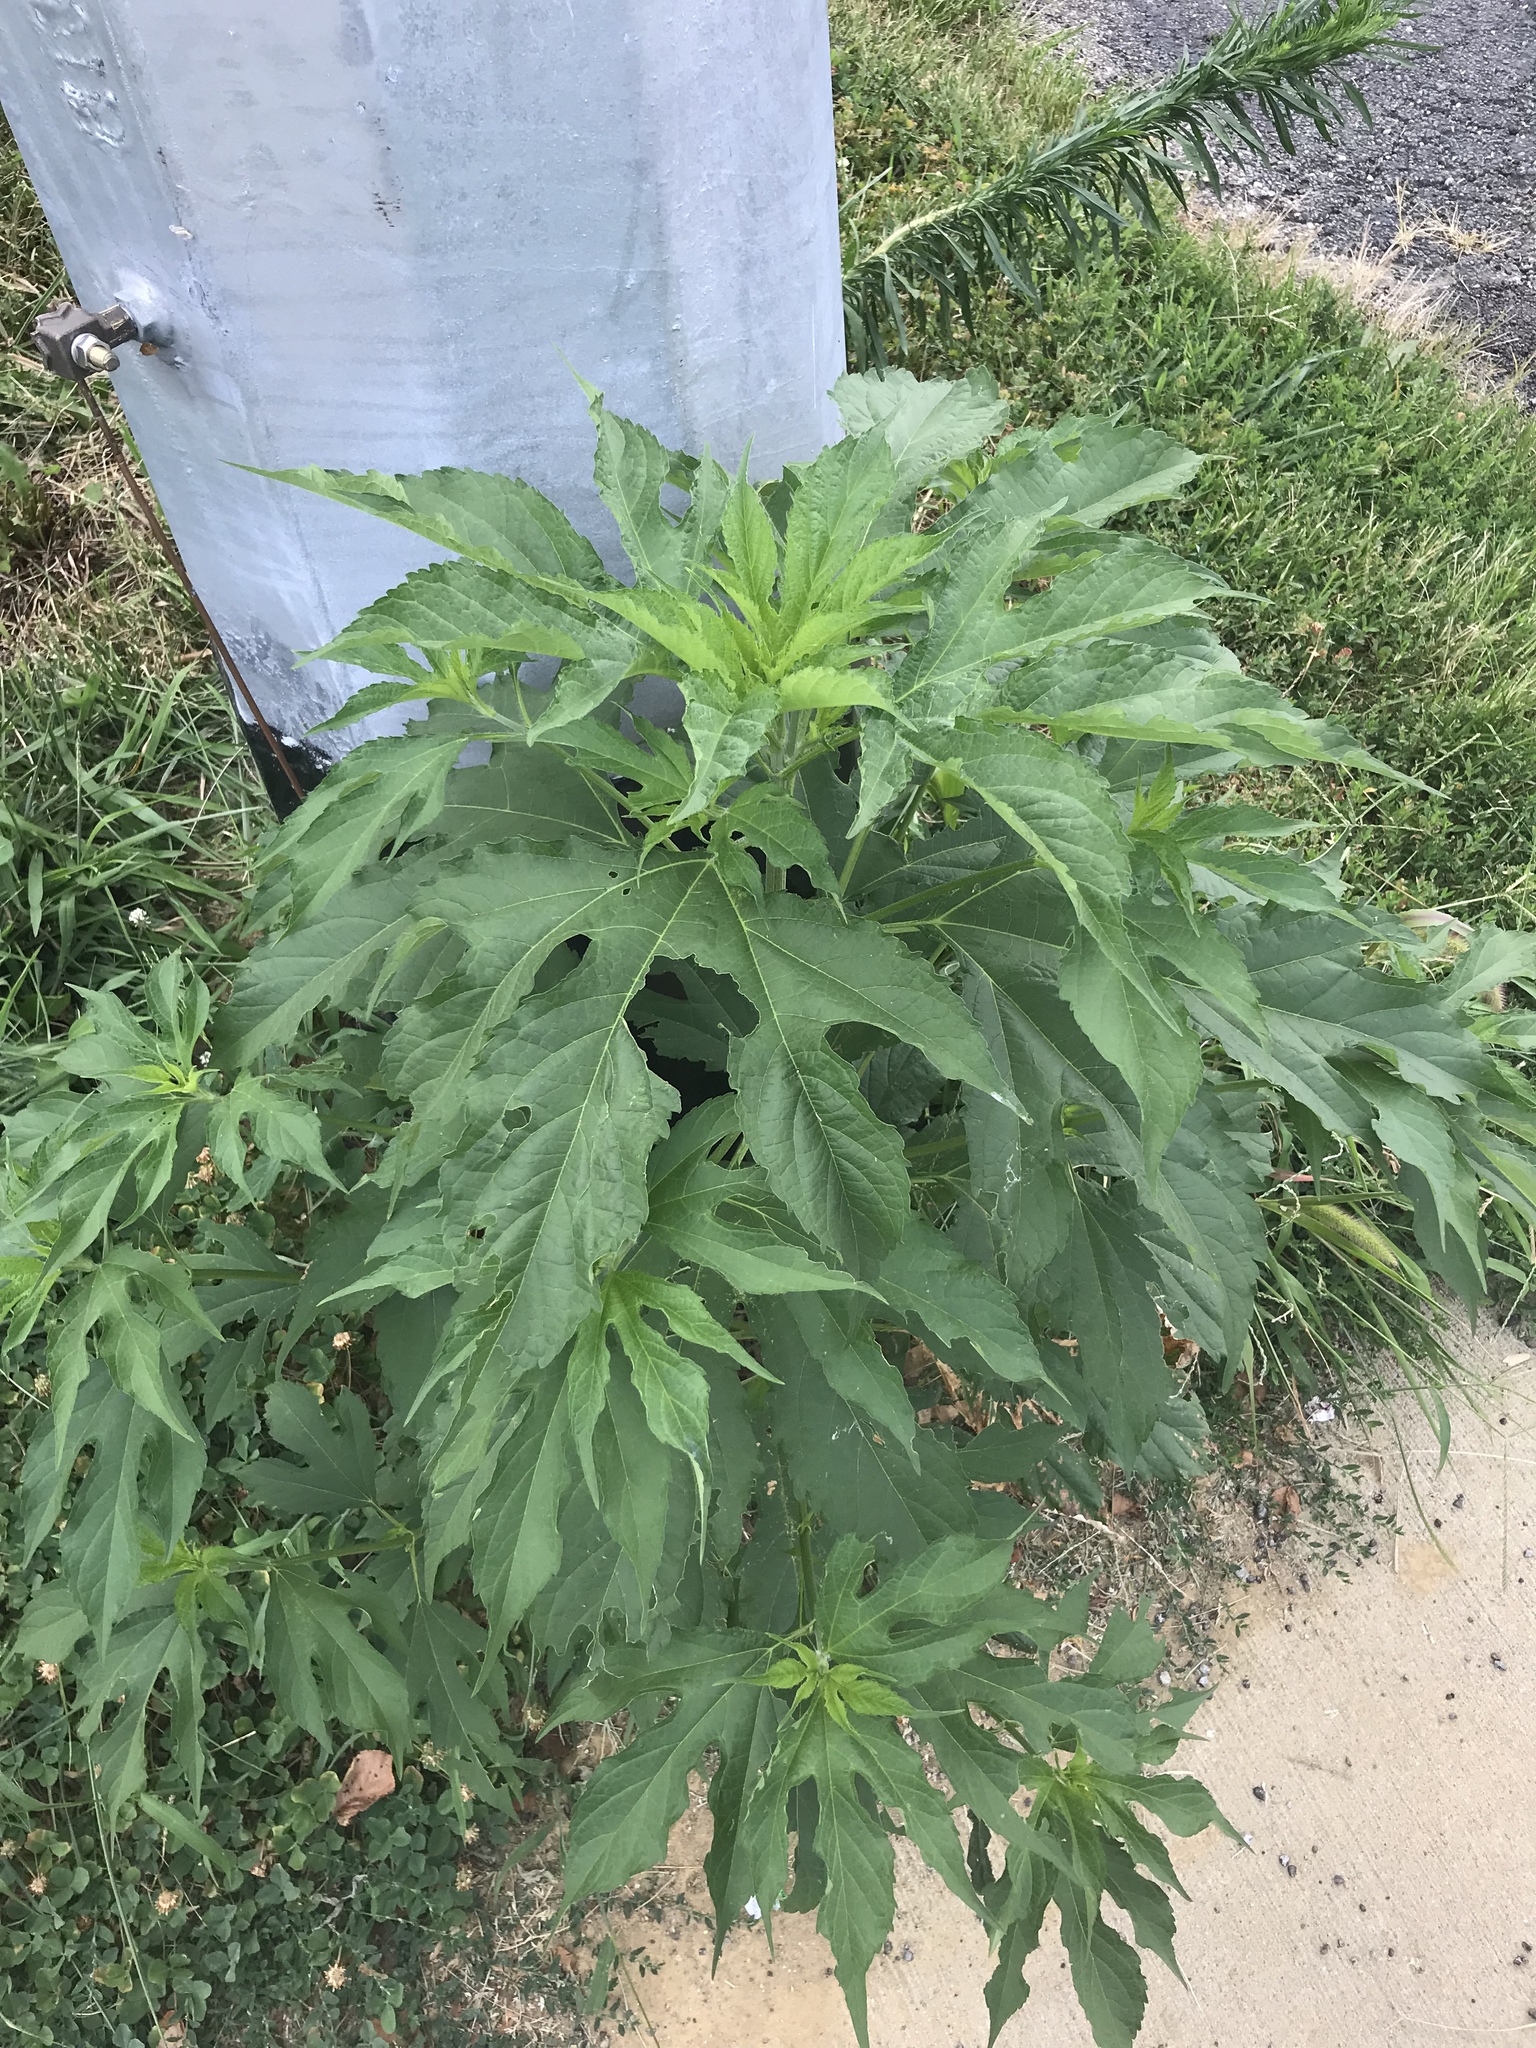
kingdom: Plantae
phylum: Tracheophyta
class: Magnoliopsida
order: Asterales
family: Asteraceae
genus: Ambrosia
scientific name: Ambrosia trifida
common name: Giant ragweed
